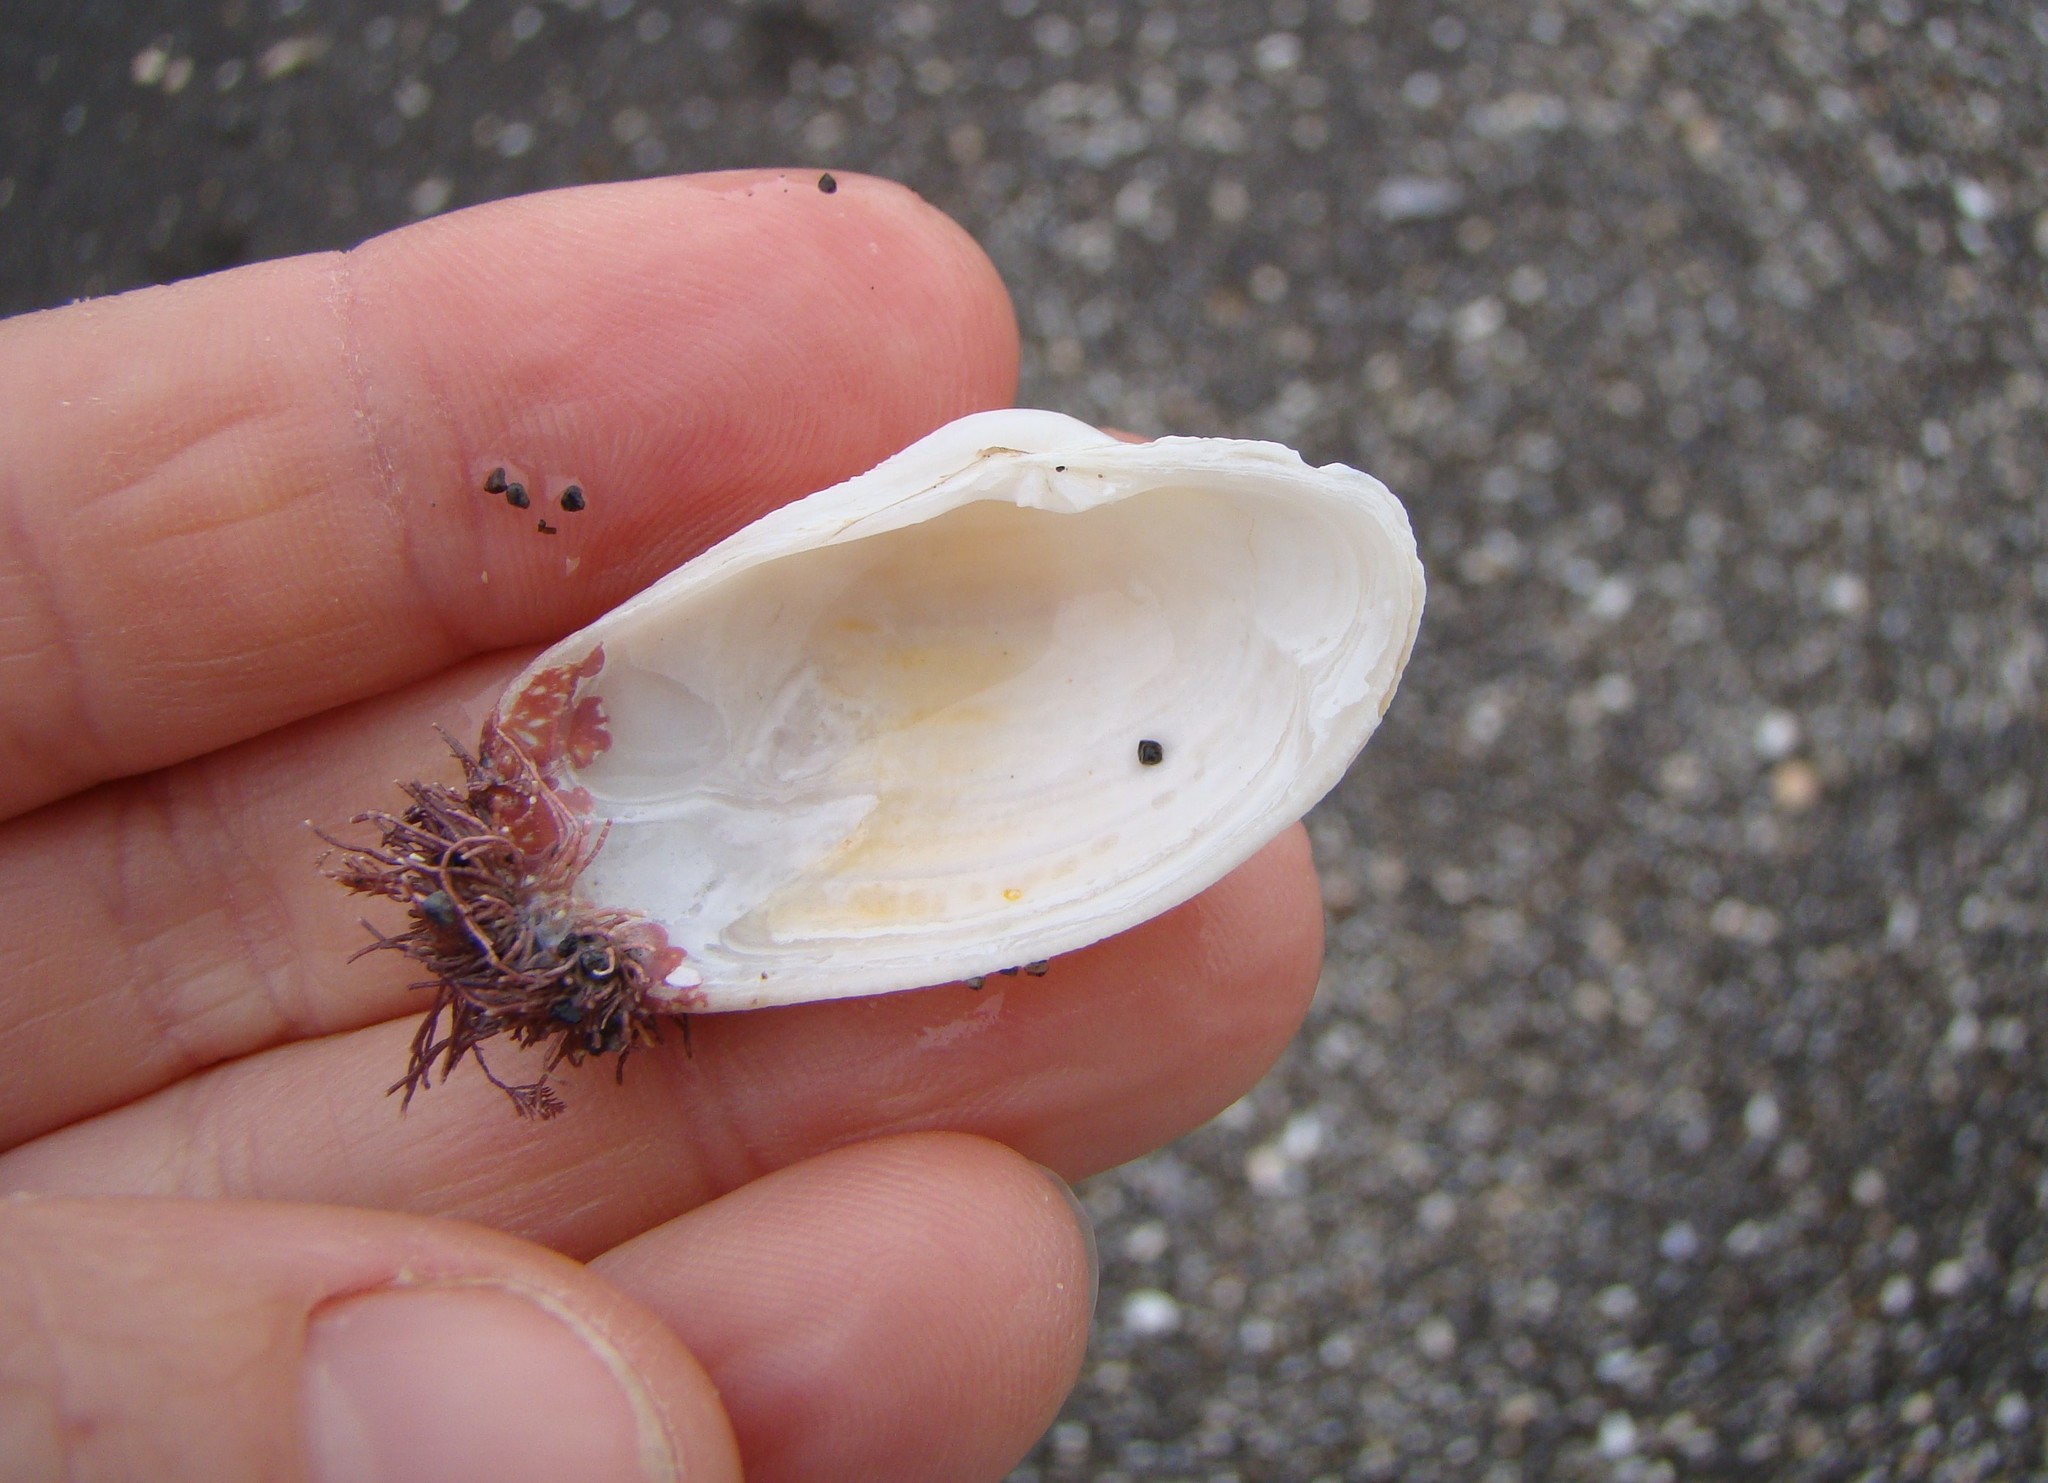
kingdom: Animalia
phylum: Mollusca
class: Bivalvia
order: Venerida
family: Veneridae
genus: Irus
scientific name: Irus elegans
